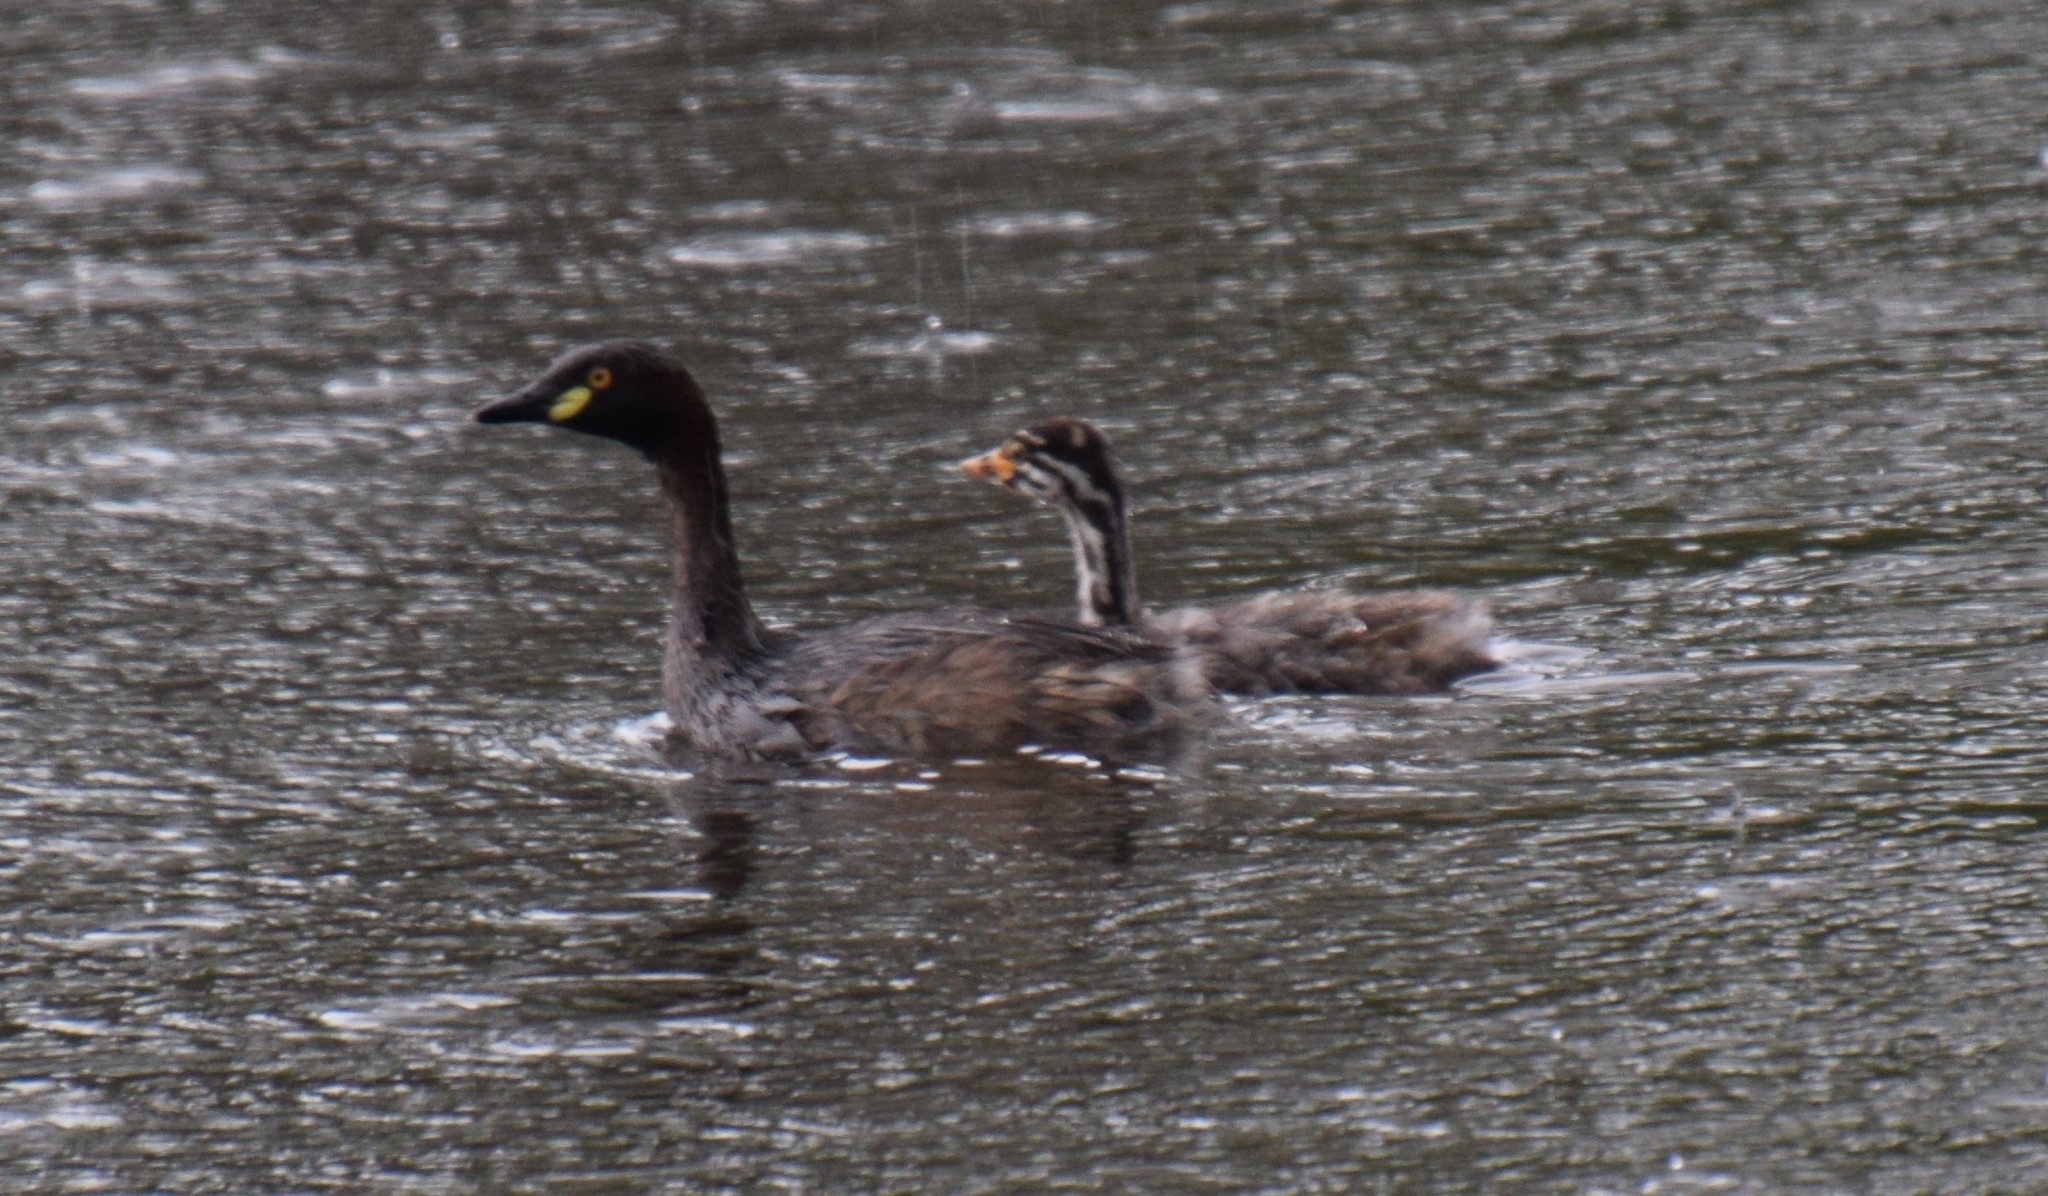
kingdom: Animalia
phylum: Chordata
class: Aves
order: Podicipediformes
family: Podicipedidae
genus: Tachybaptus
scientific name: Tachybaptus novaehollandiae
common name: Australasian grebe
